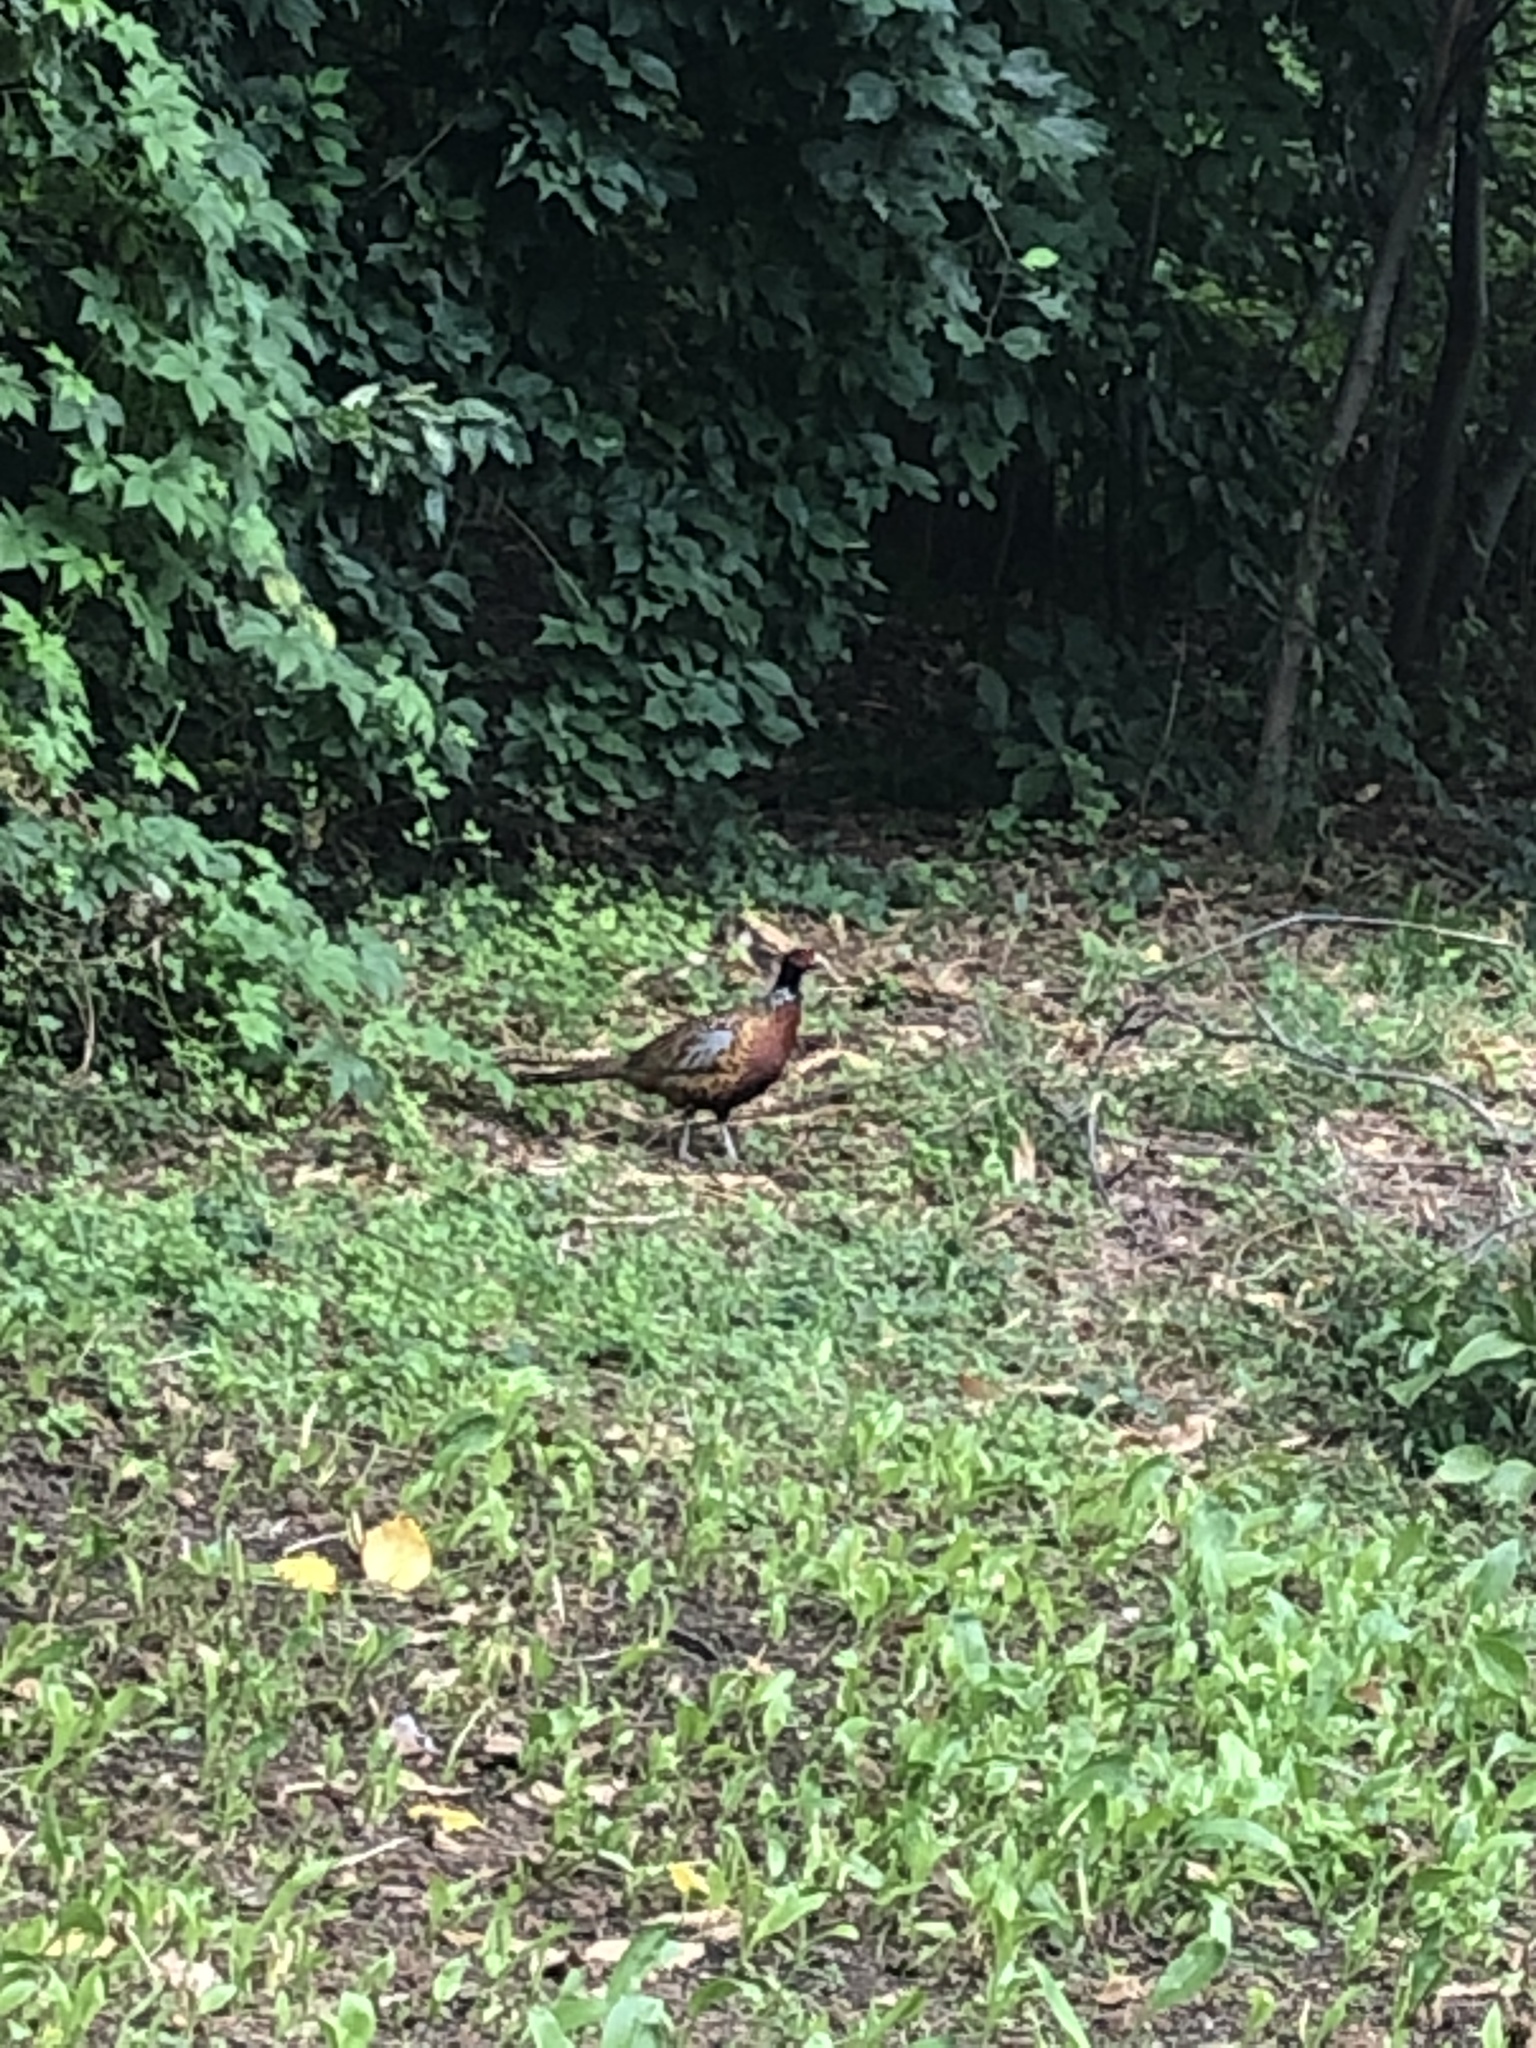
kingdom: Animalia
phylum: Chordata
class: Aves
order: Galliformes
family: Phasianidae
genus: Phasianus
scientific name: Phasianus colchicus
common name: Common pheasant
